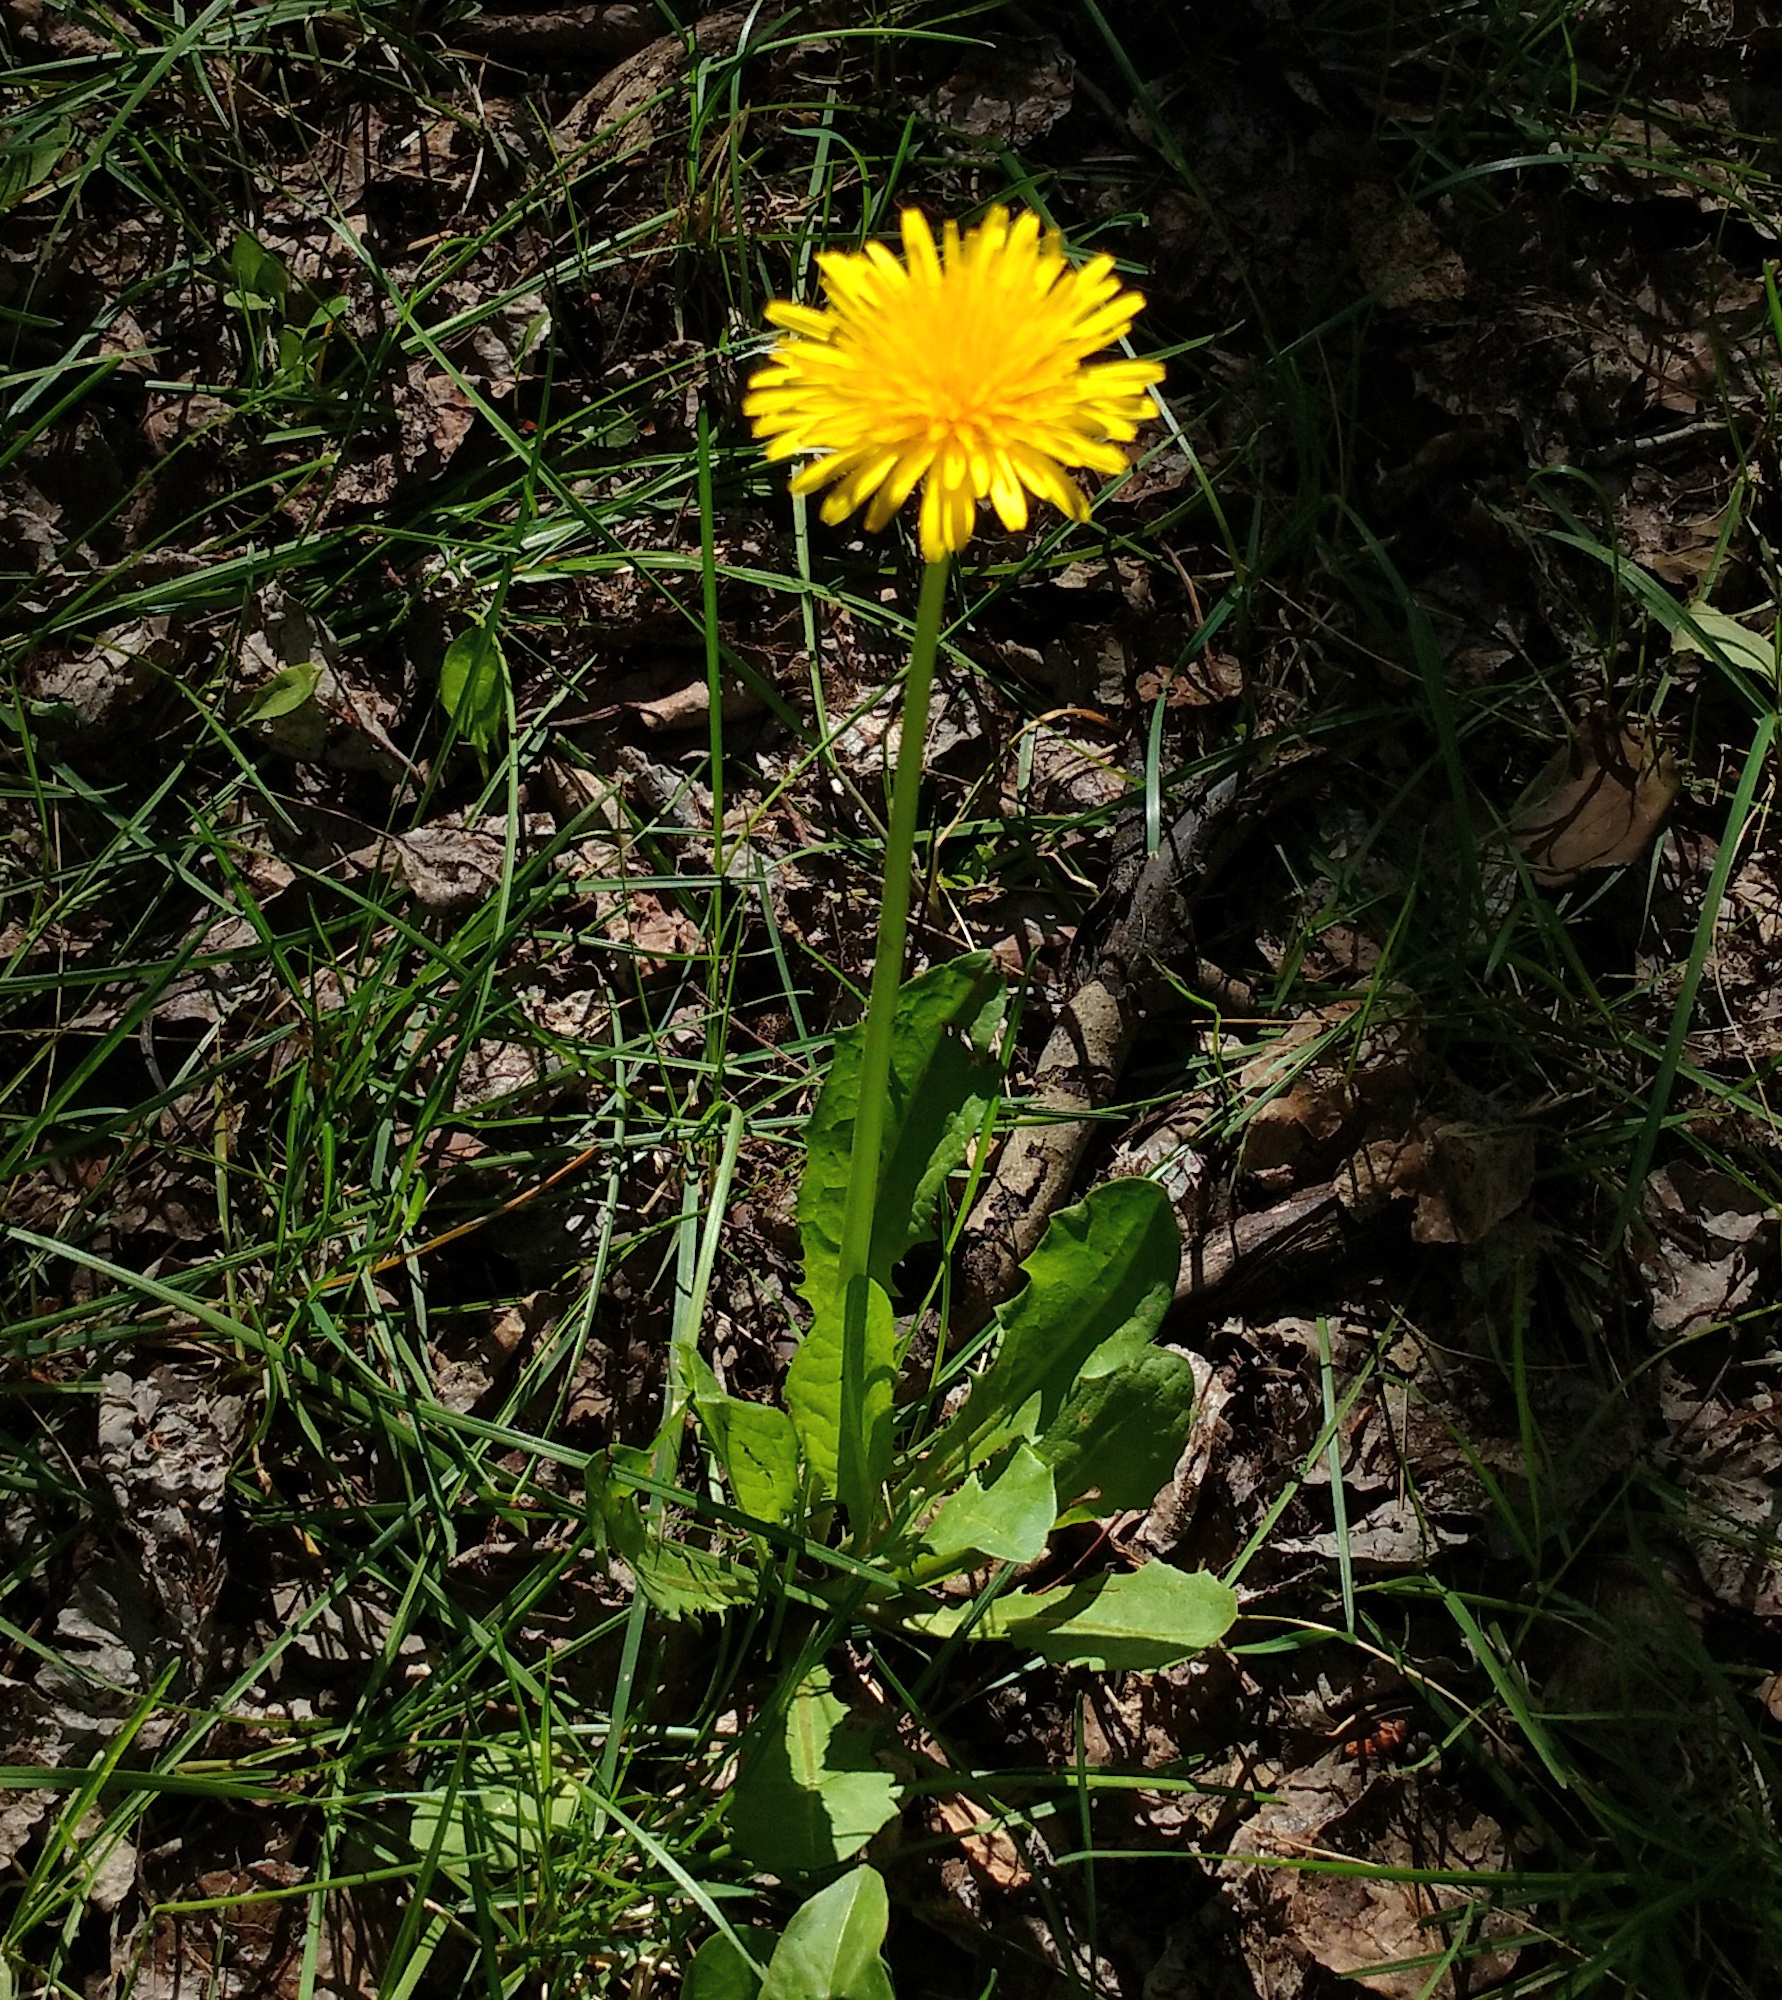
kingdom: Plantae
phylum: Tracheophyta
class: Magnoliopsida
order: Asterales
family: Asteraceae
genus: Taraxacum
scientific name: Taraxacum officinale
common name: Common dandelion
